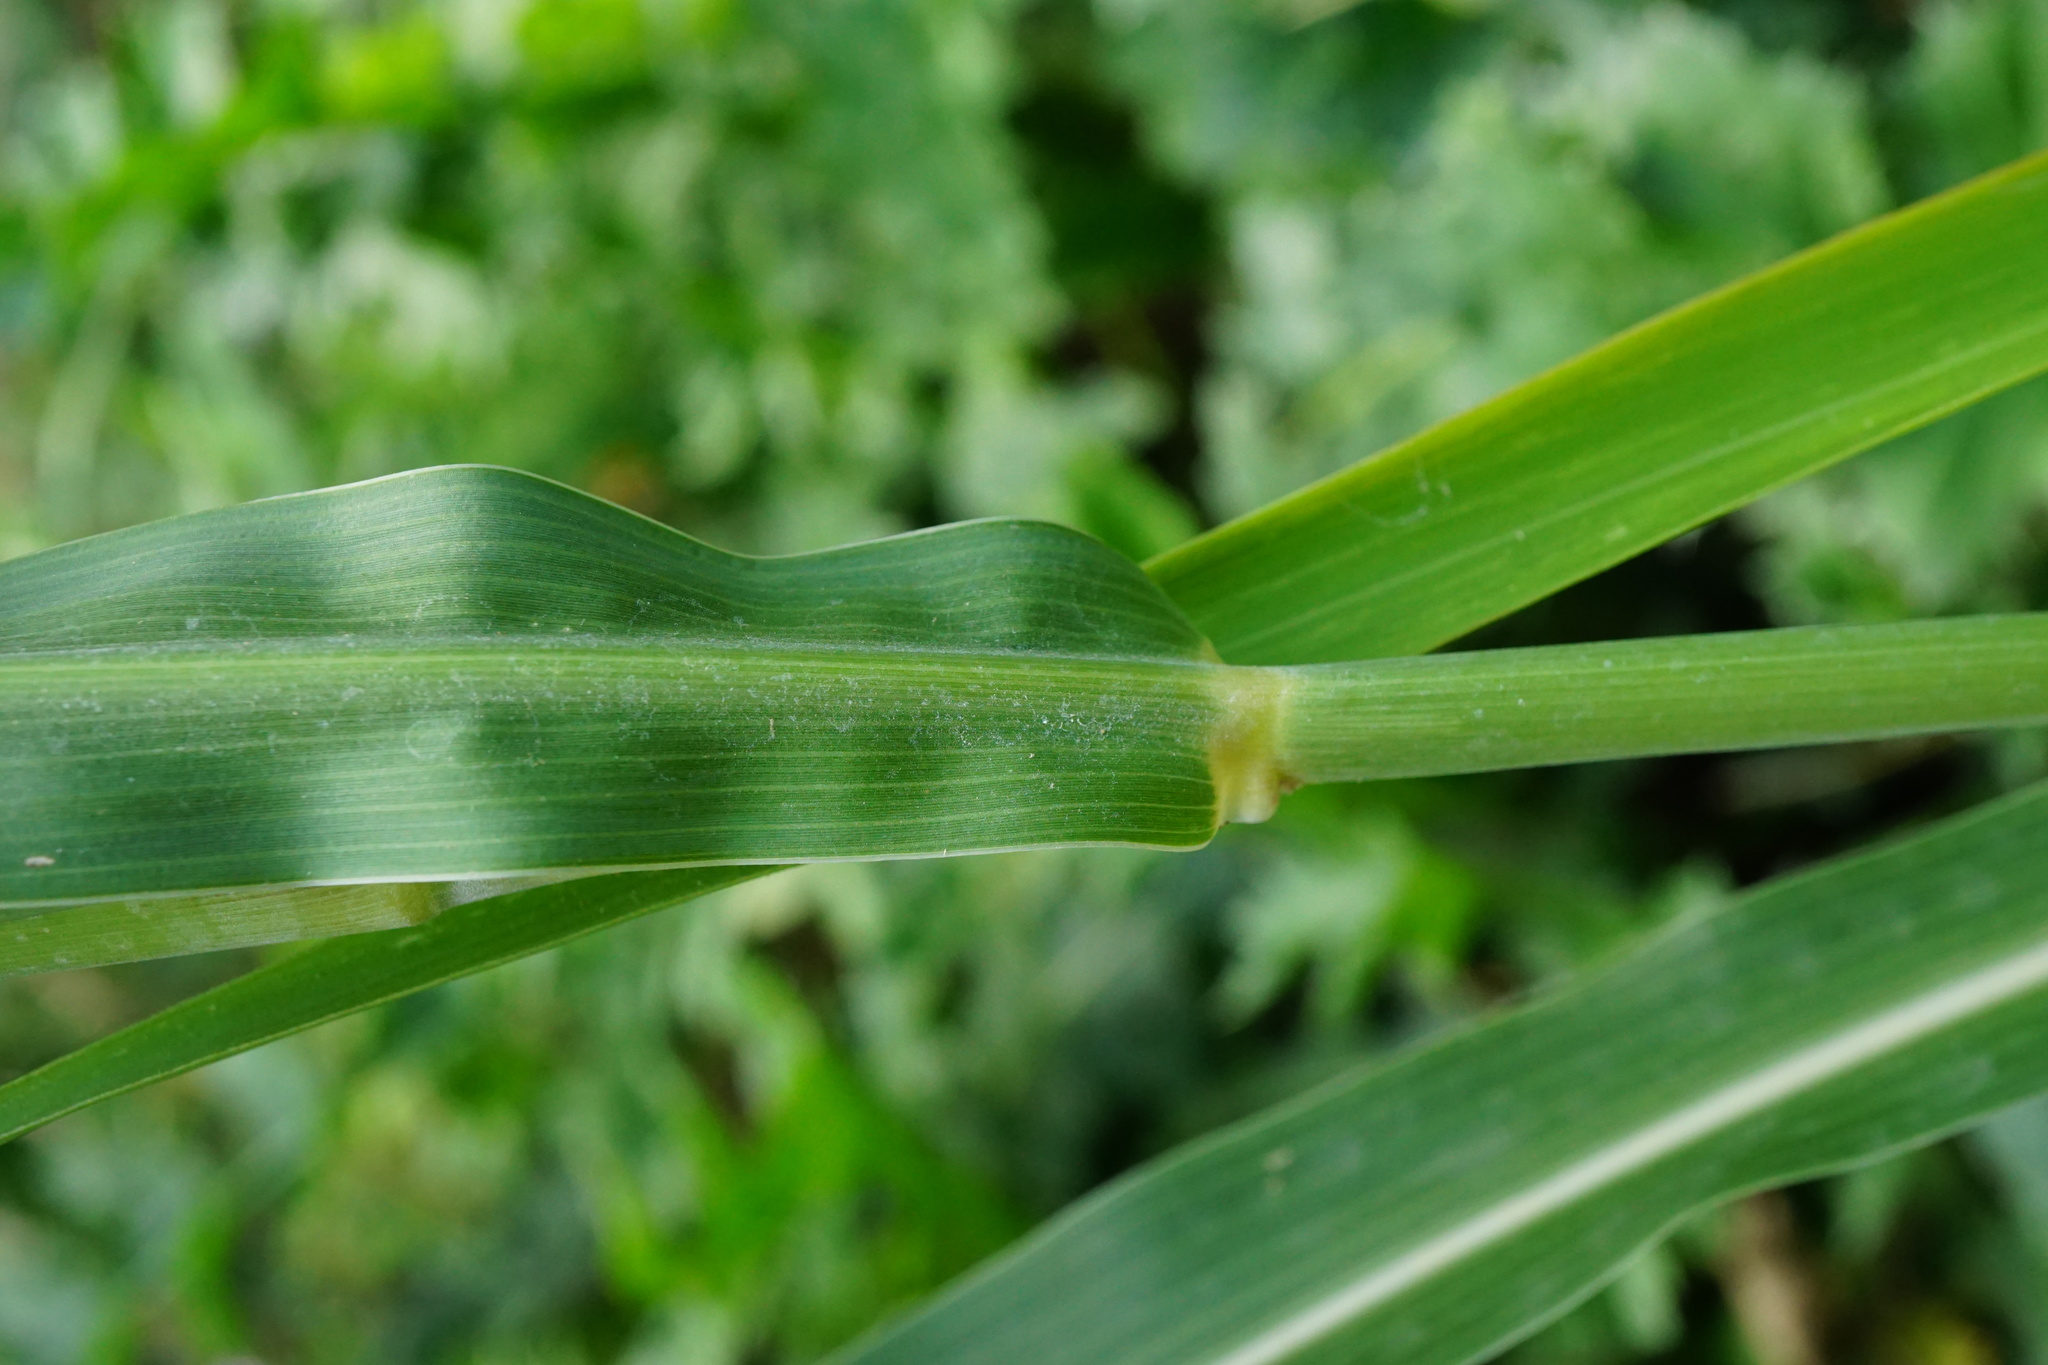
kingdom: Plantae
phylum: Tracheophyta
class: Liliopsida
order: Poales
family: Poaceae
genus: Sorghum
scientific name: Sorghum halepense
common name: Johnson-grass
